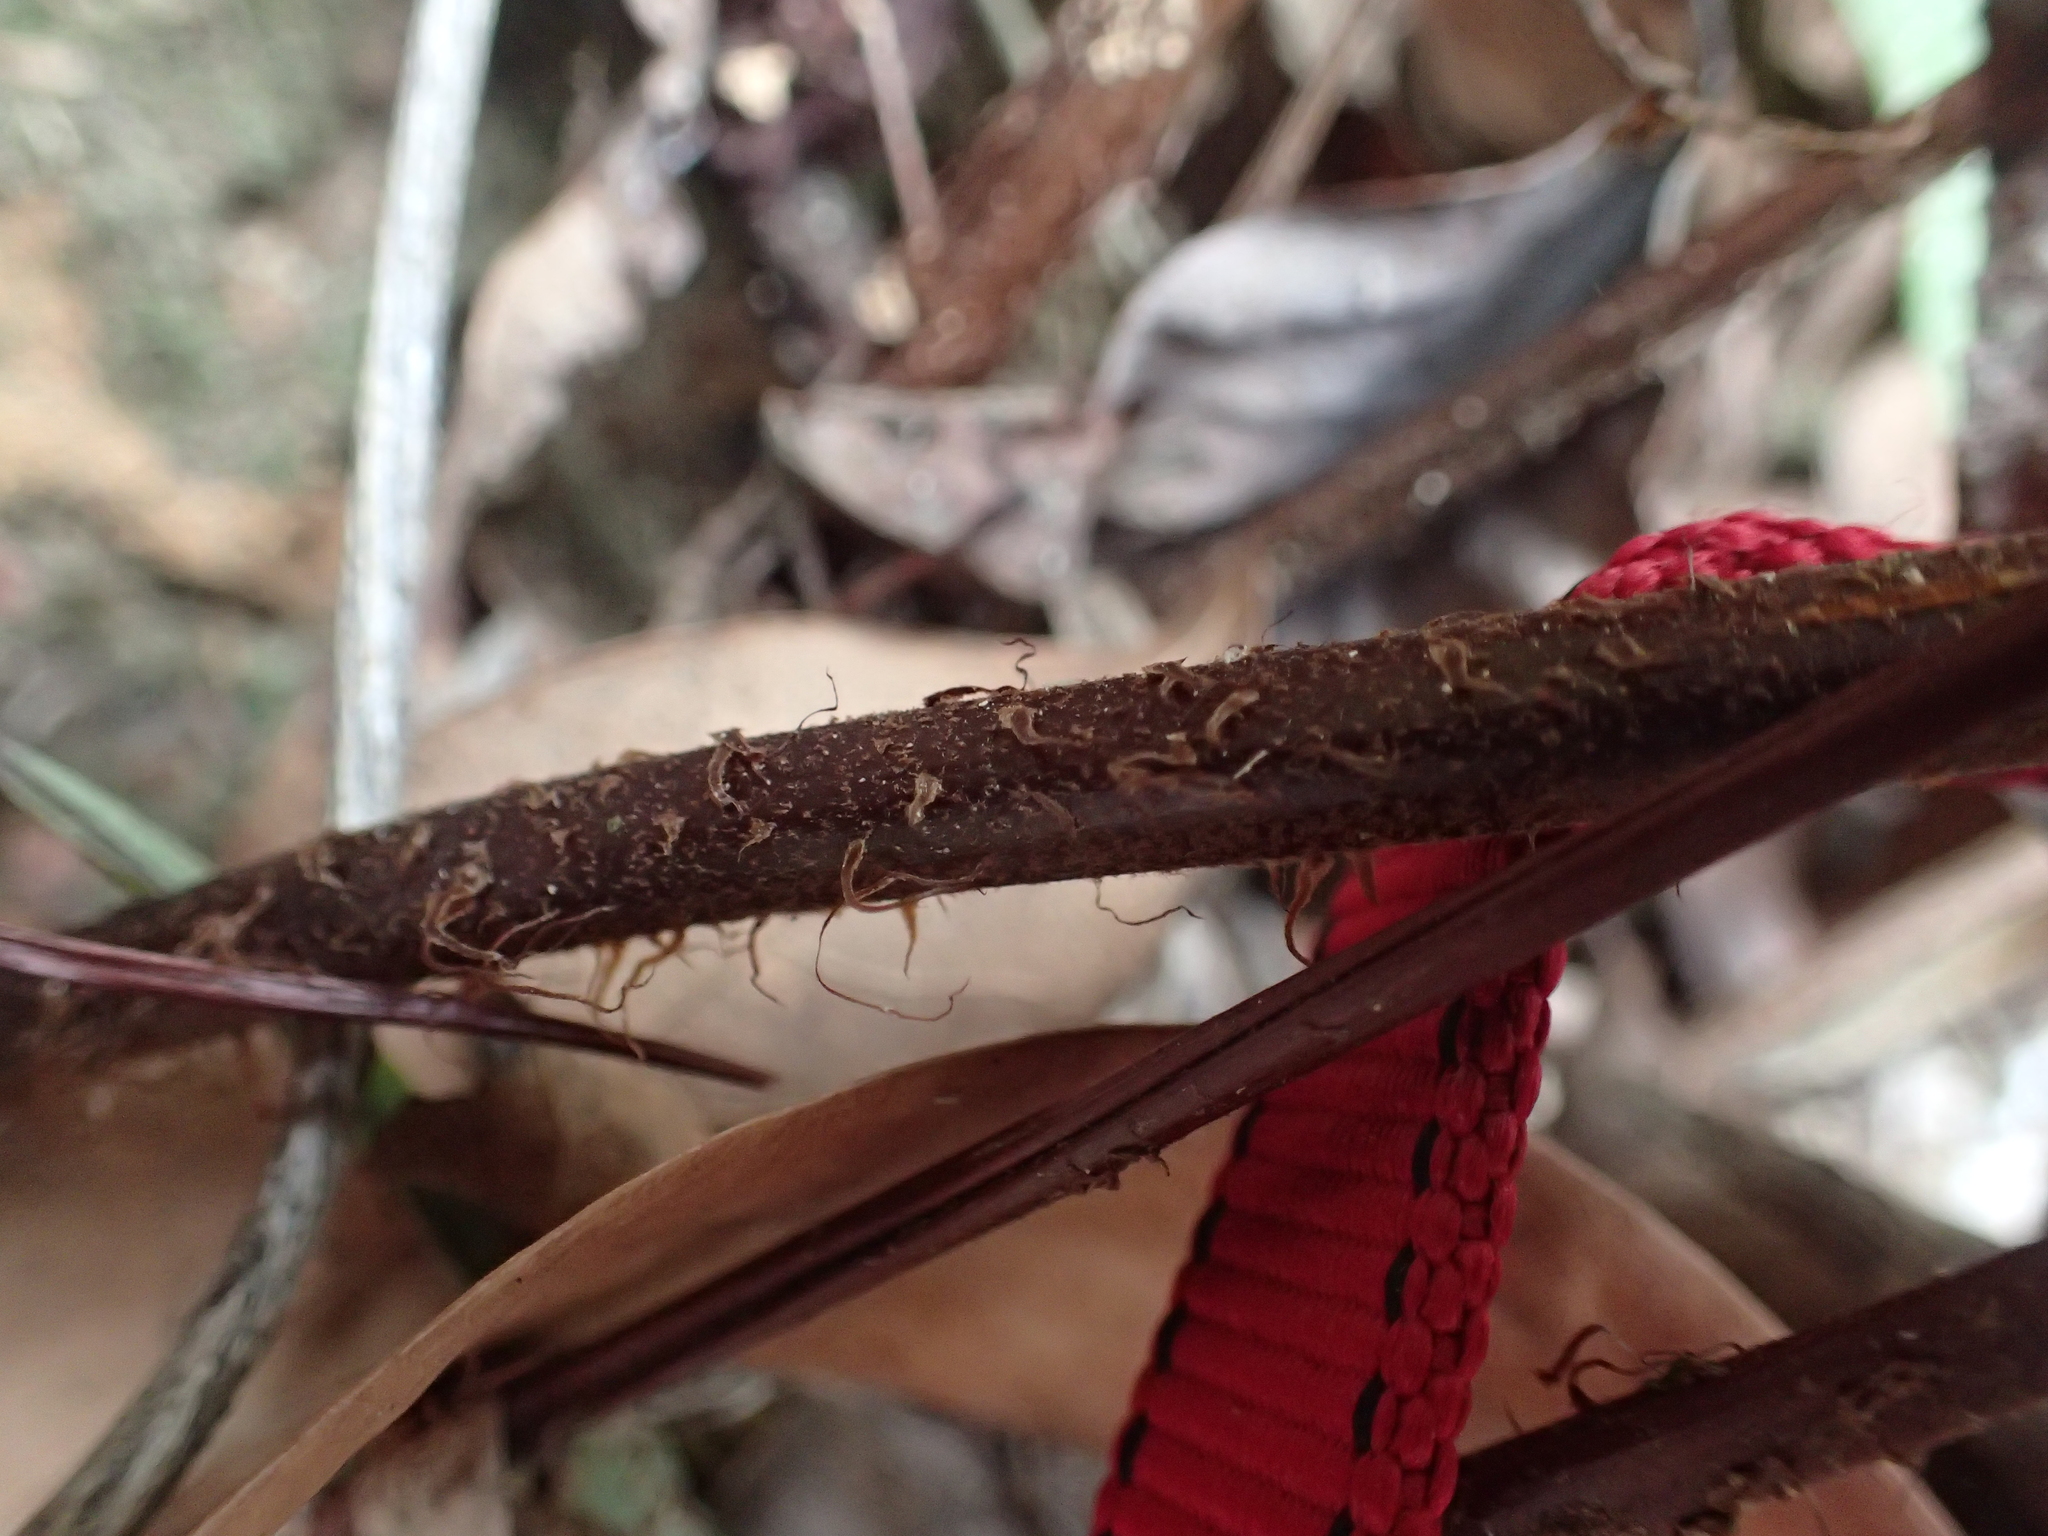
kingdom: Plantae
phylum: Tracheophyta
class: Polypodiopsida
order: Cyatheales
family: Cyatheaceae
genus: Gymnosphaera
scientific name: Gymnosphaera podophylla
